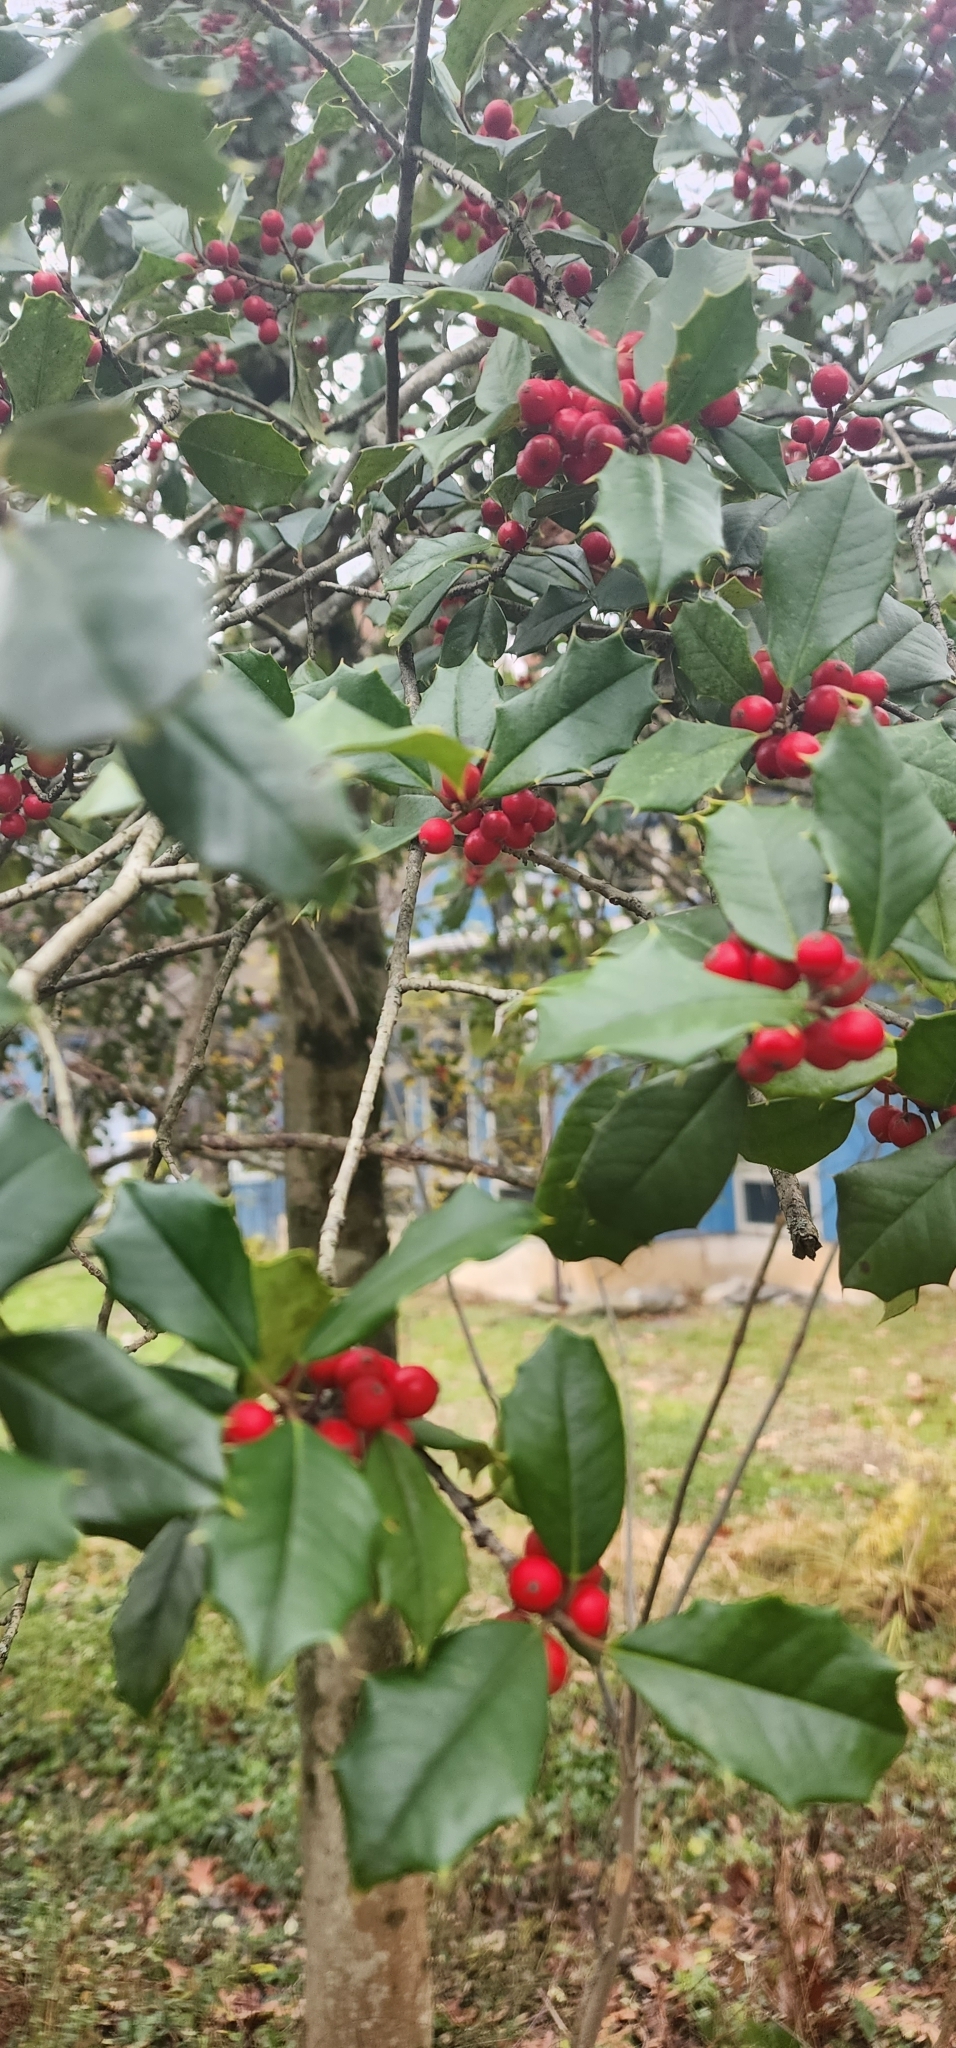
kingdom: Plantae
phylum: Tracheophyta
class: Magnoliopsida
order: Aquifoliales
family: Aquifoliaceae
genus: Ilex
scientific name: Ilex opaca
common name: American holly
